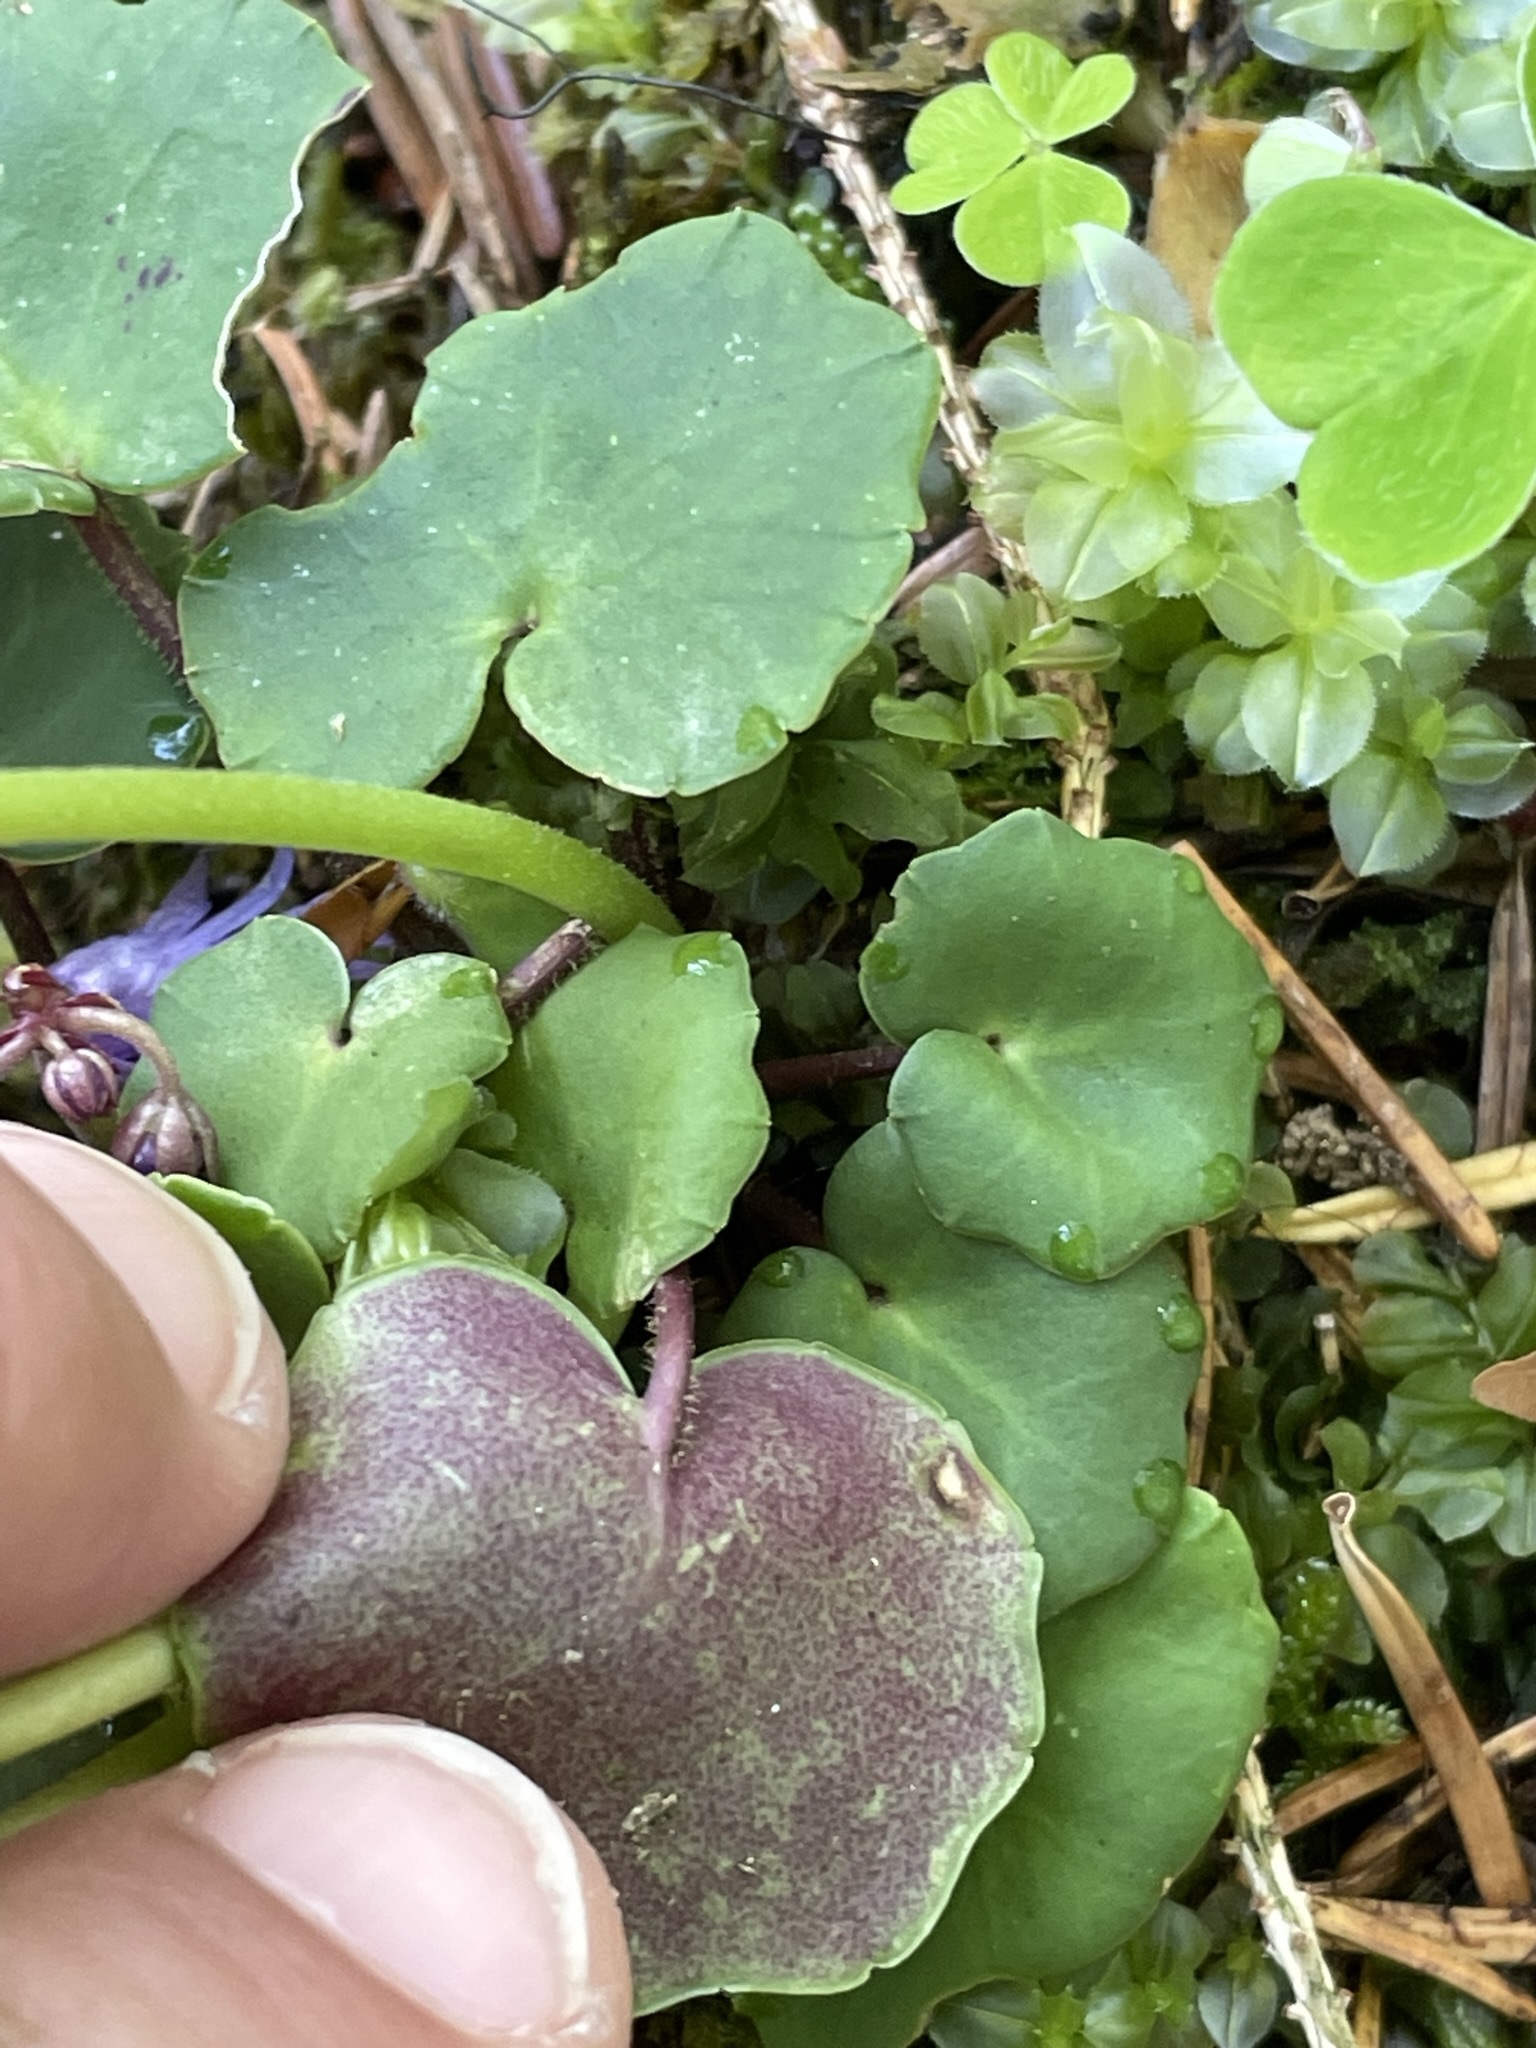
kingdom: Plantae
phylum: Tracheophyta
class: Magnoliopsida
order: Ericales
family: Primulaceae
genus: Soldanella
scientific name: Soldanella montana
